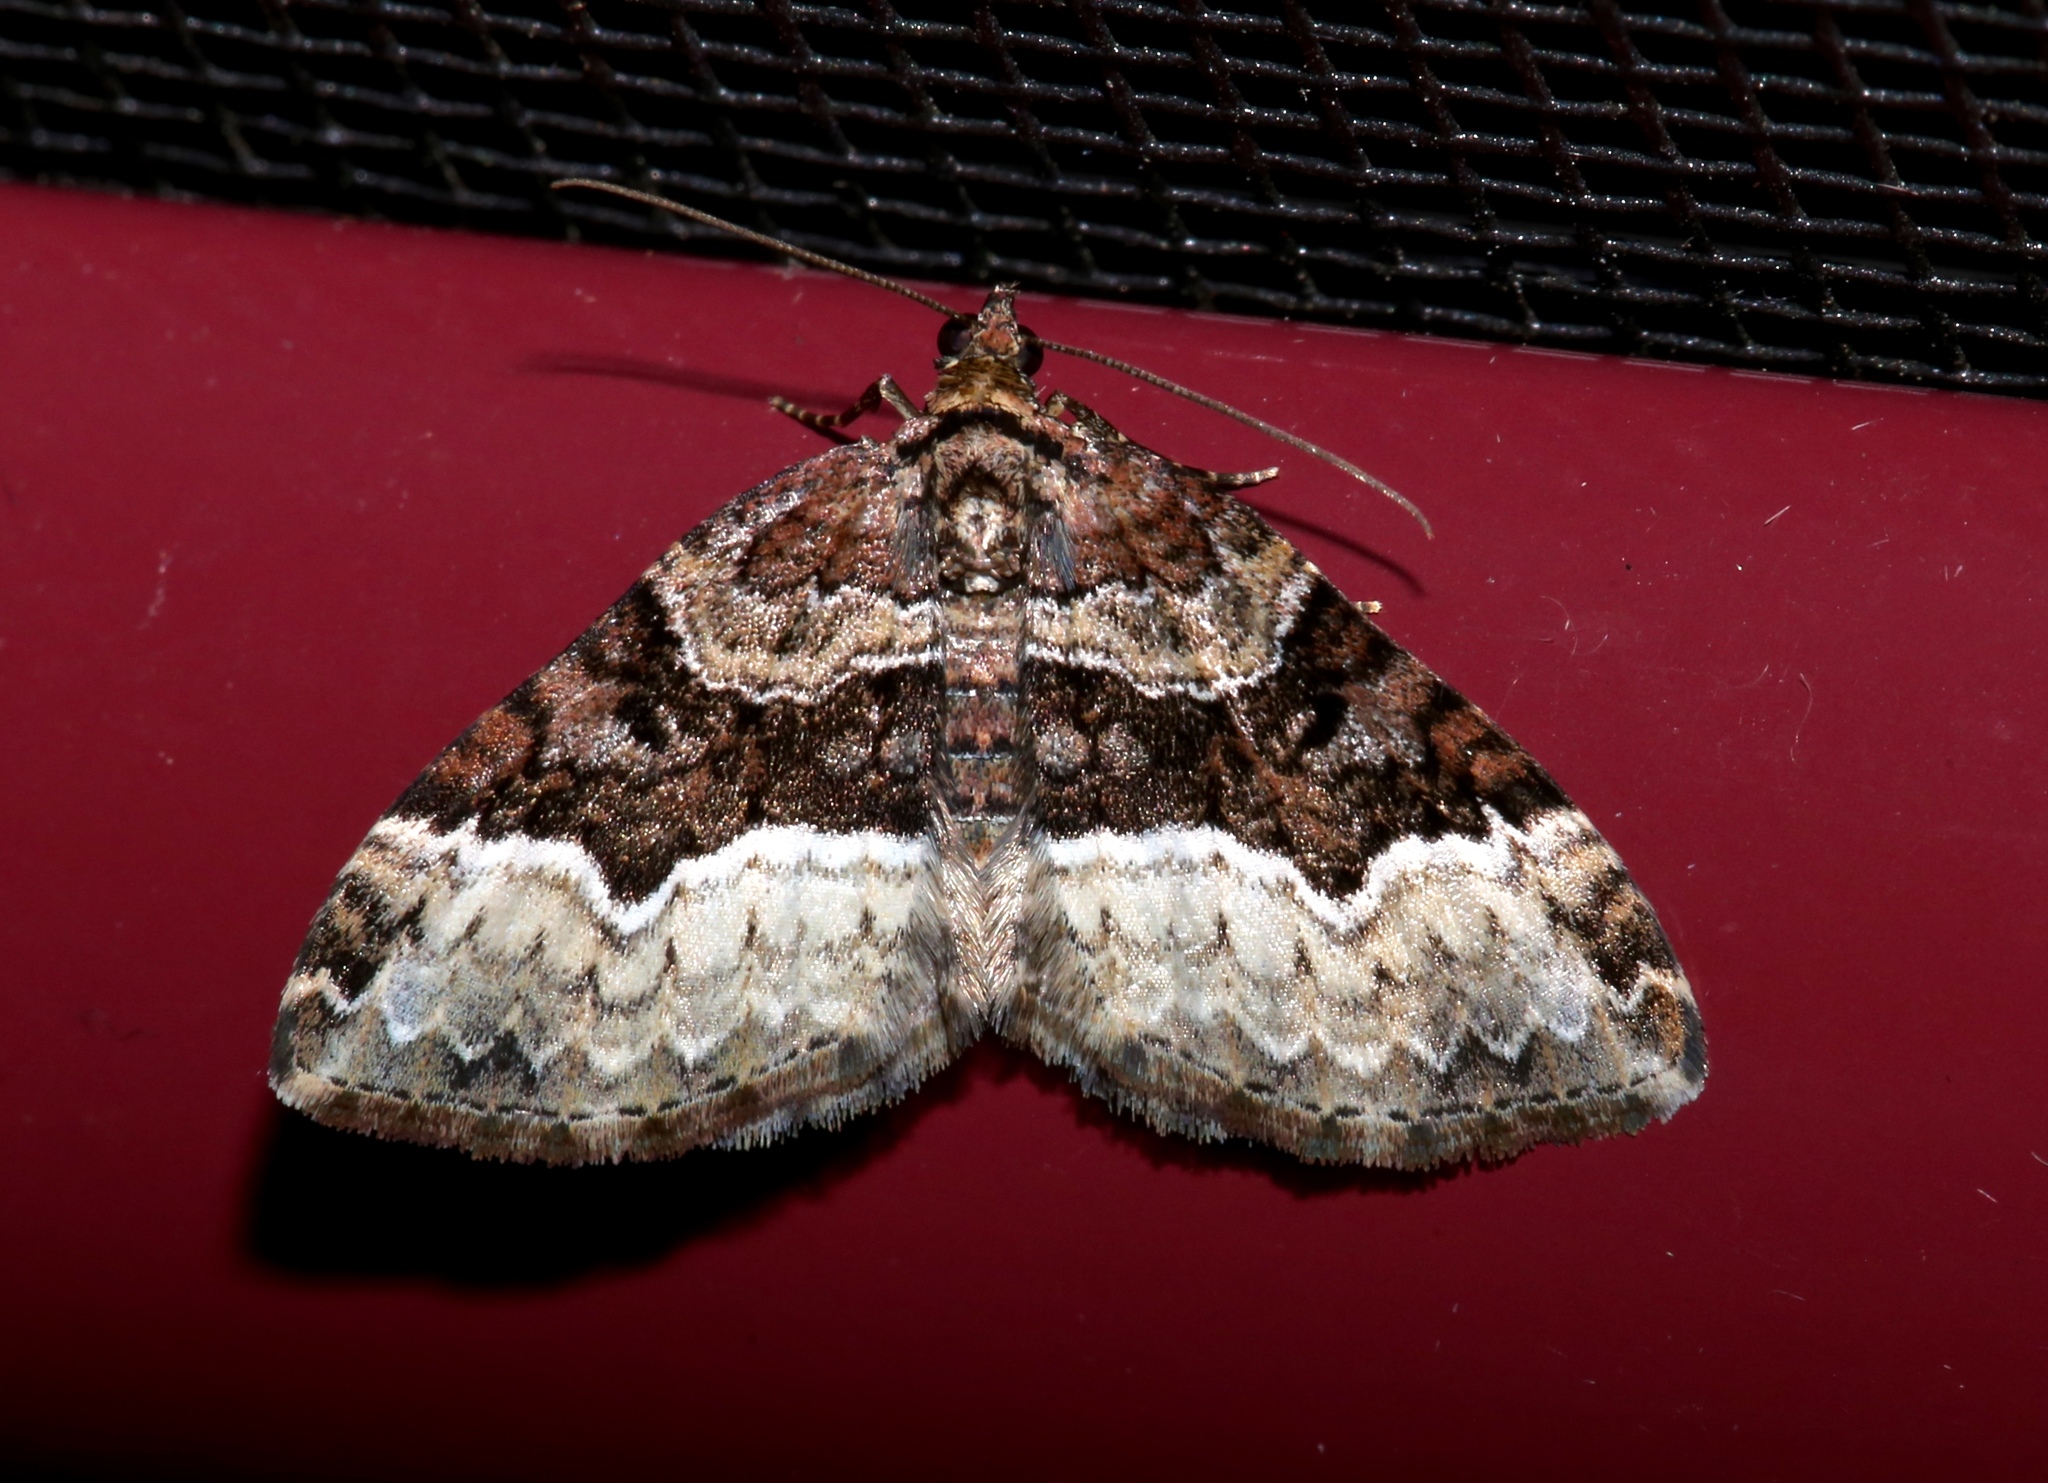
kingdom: Animalia
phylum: Arthropoda
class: Insecta
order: Lepidoptera
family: Geometridae
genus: Euphyia
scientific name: Euphyia intermediata
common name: Sharp-angled carpet
